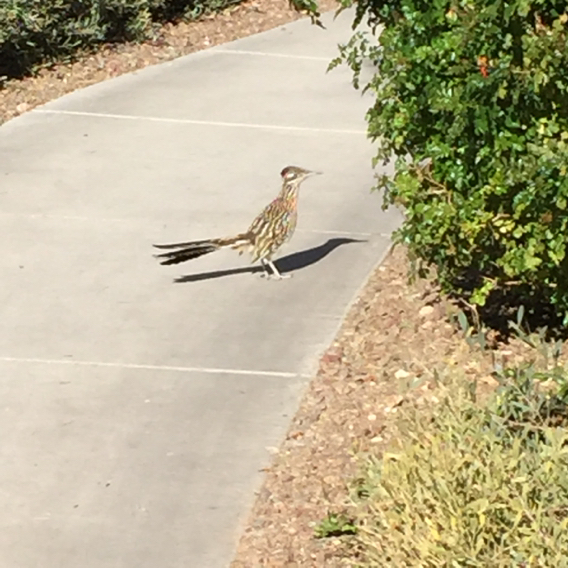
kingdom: Animalia
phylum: Chordata
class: Aves
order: Cuculiformes
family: Cuculidae
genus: Geococcyx
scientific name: Geococcyx californianus
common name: Greater roadrunner
